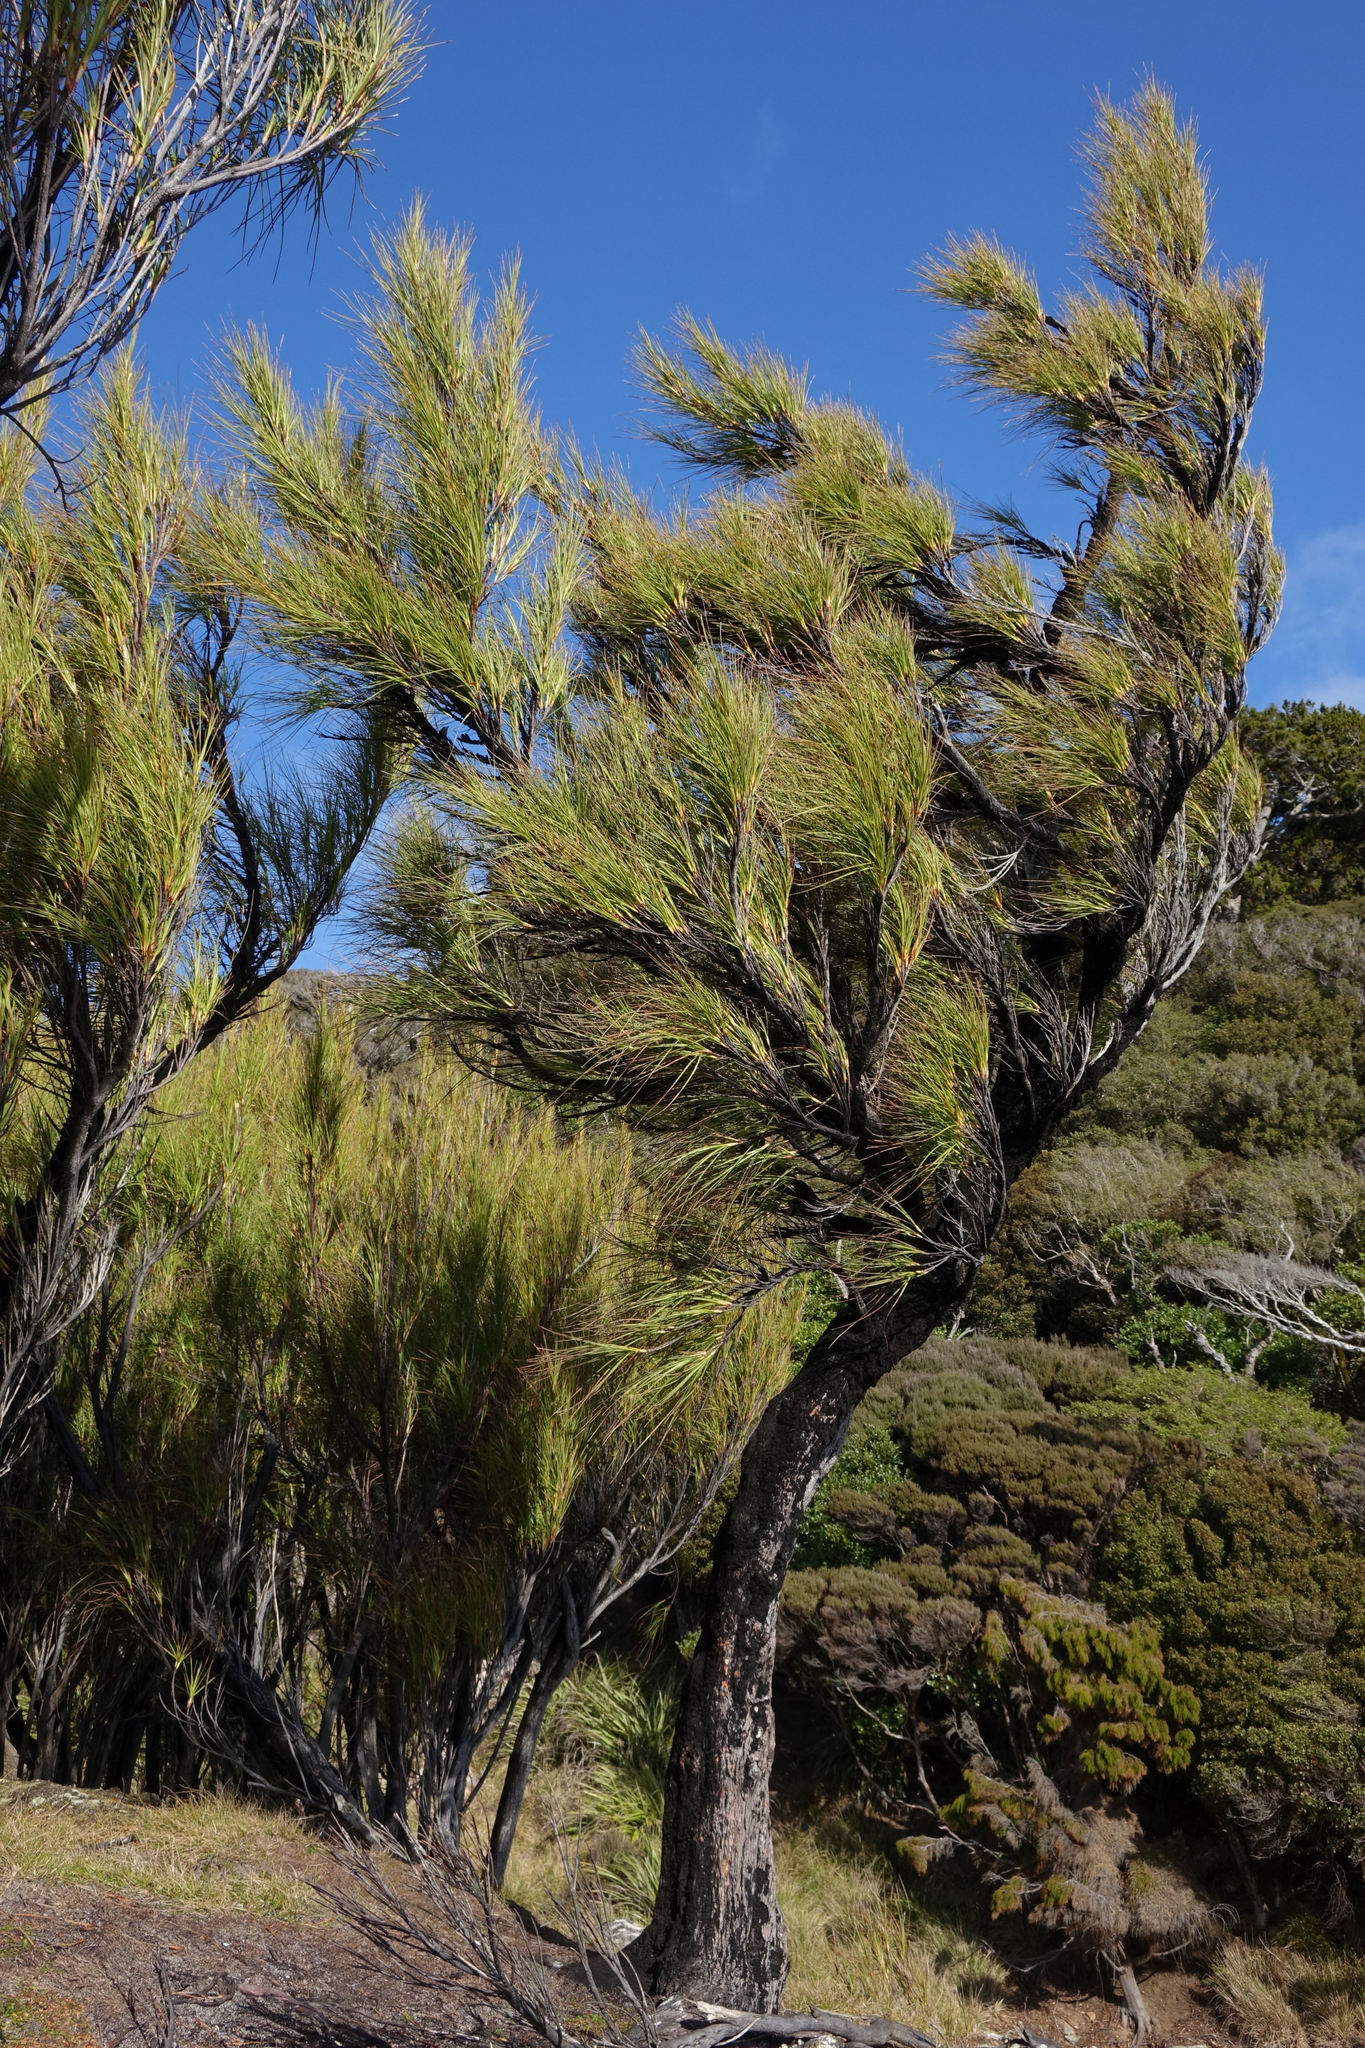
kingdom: Plantae
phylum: Tracheophyta
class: Magnoliopsida
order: Ericales
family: Ericaceae
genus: Dracophyllum
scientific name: Dracophyllum longifolium
